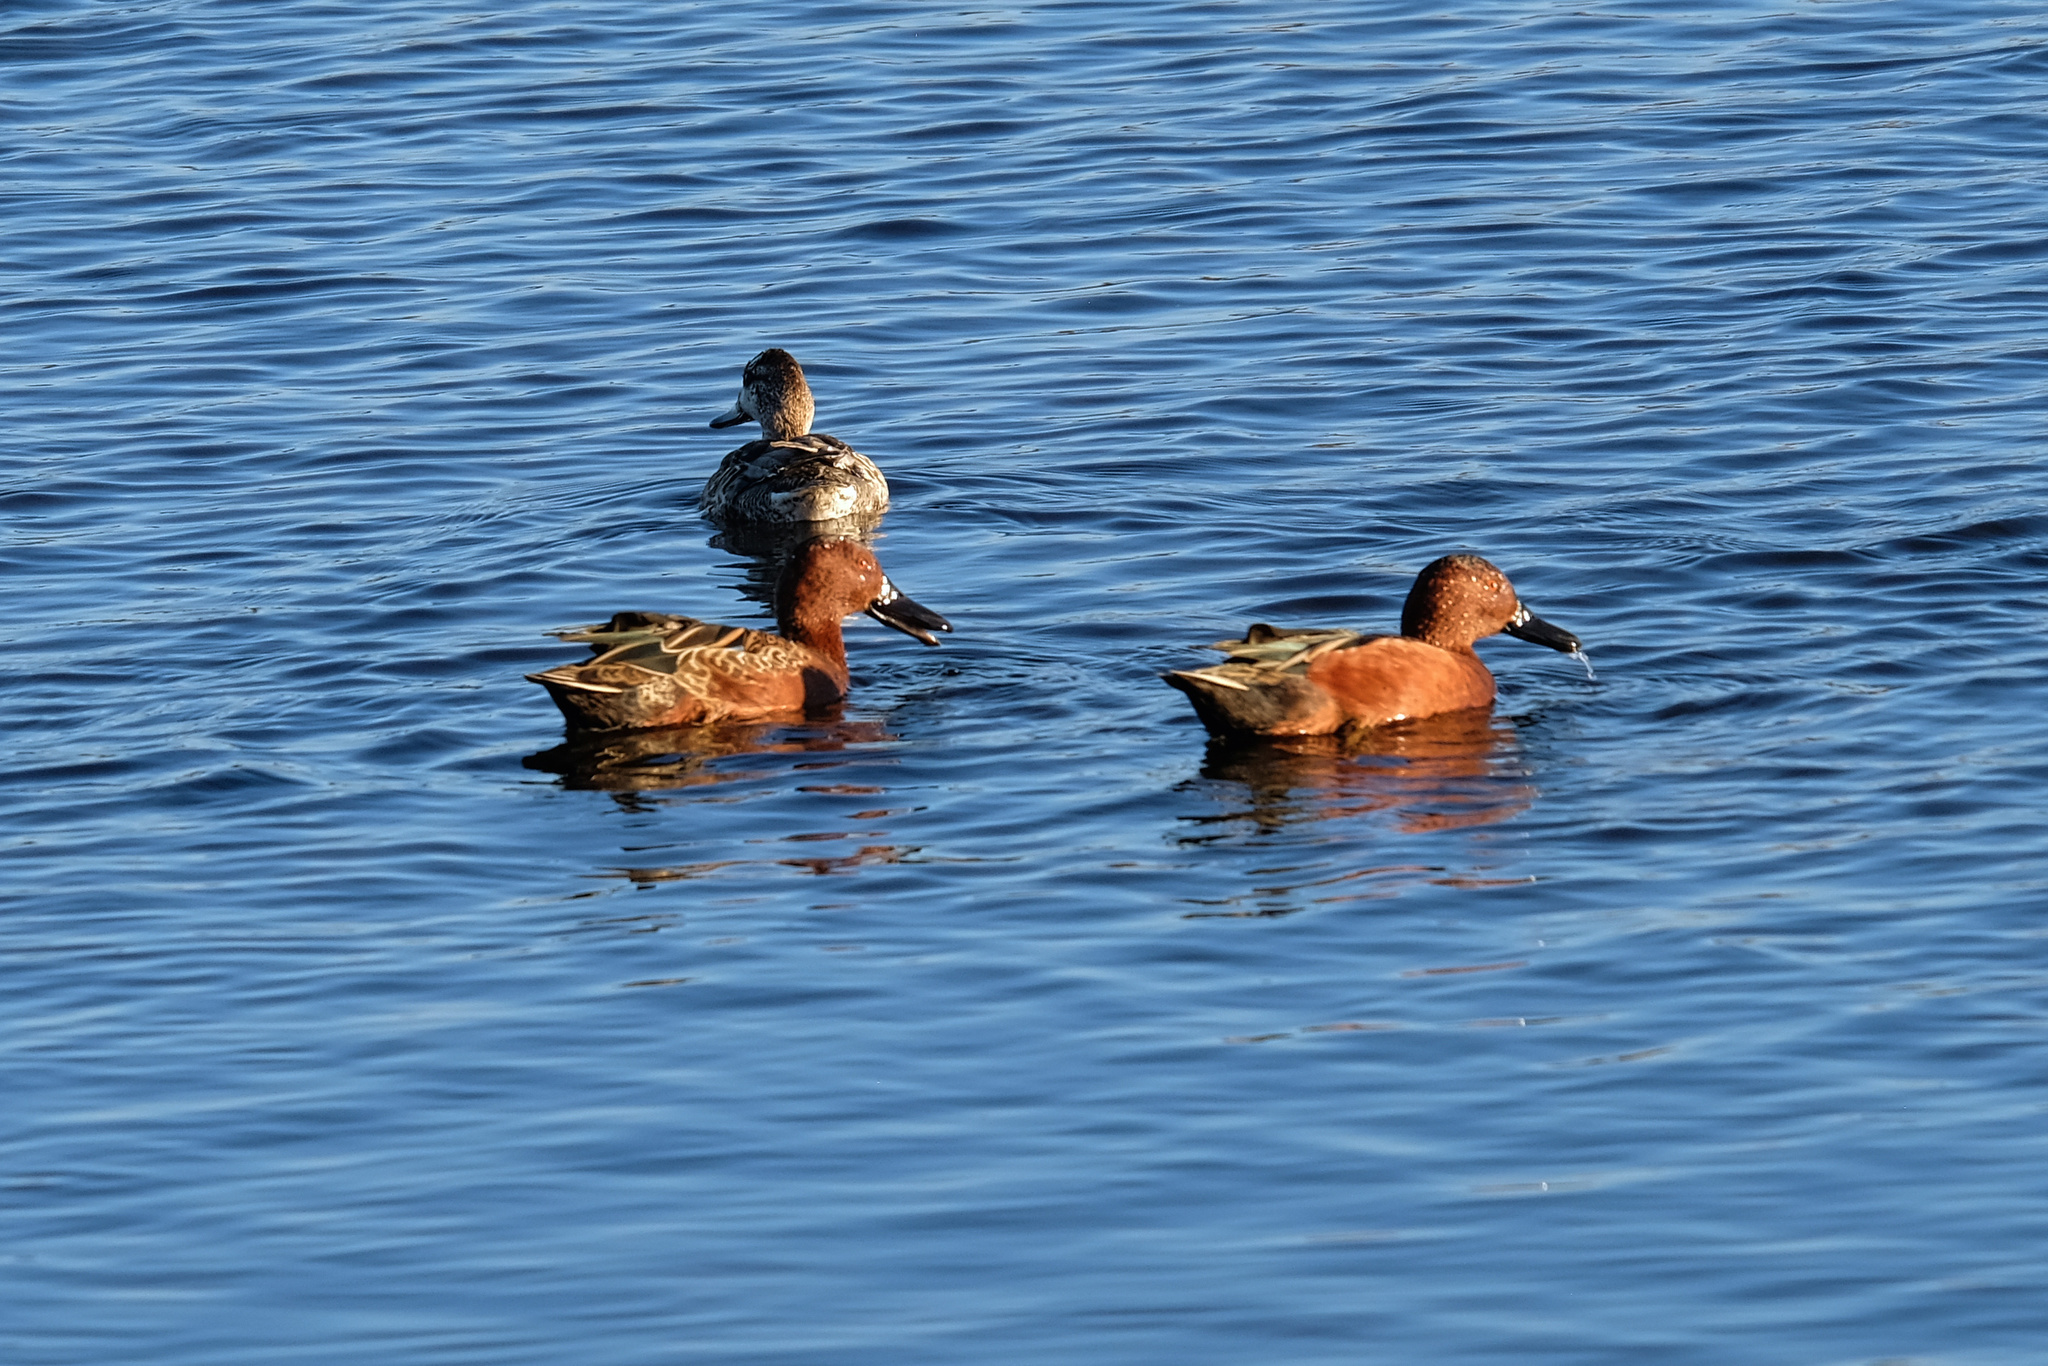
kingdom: Animalia
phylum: Chordata
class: Aves
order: Anseriformes
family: Anatidae
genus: Spatula
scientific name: Spatula cyanoptera
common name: Cinnamon teal
